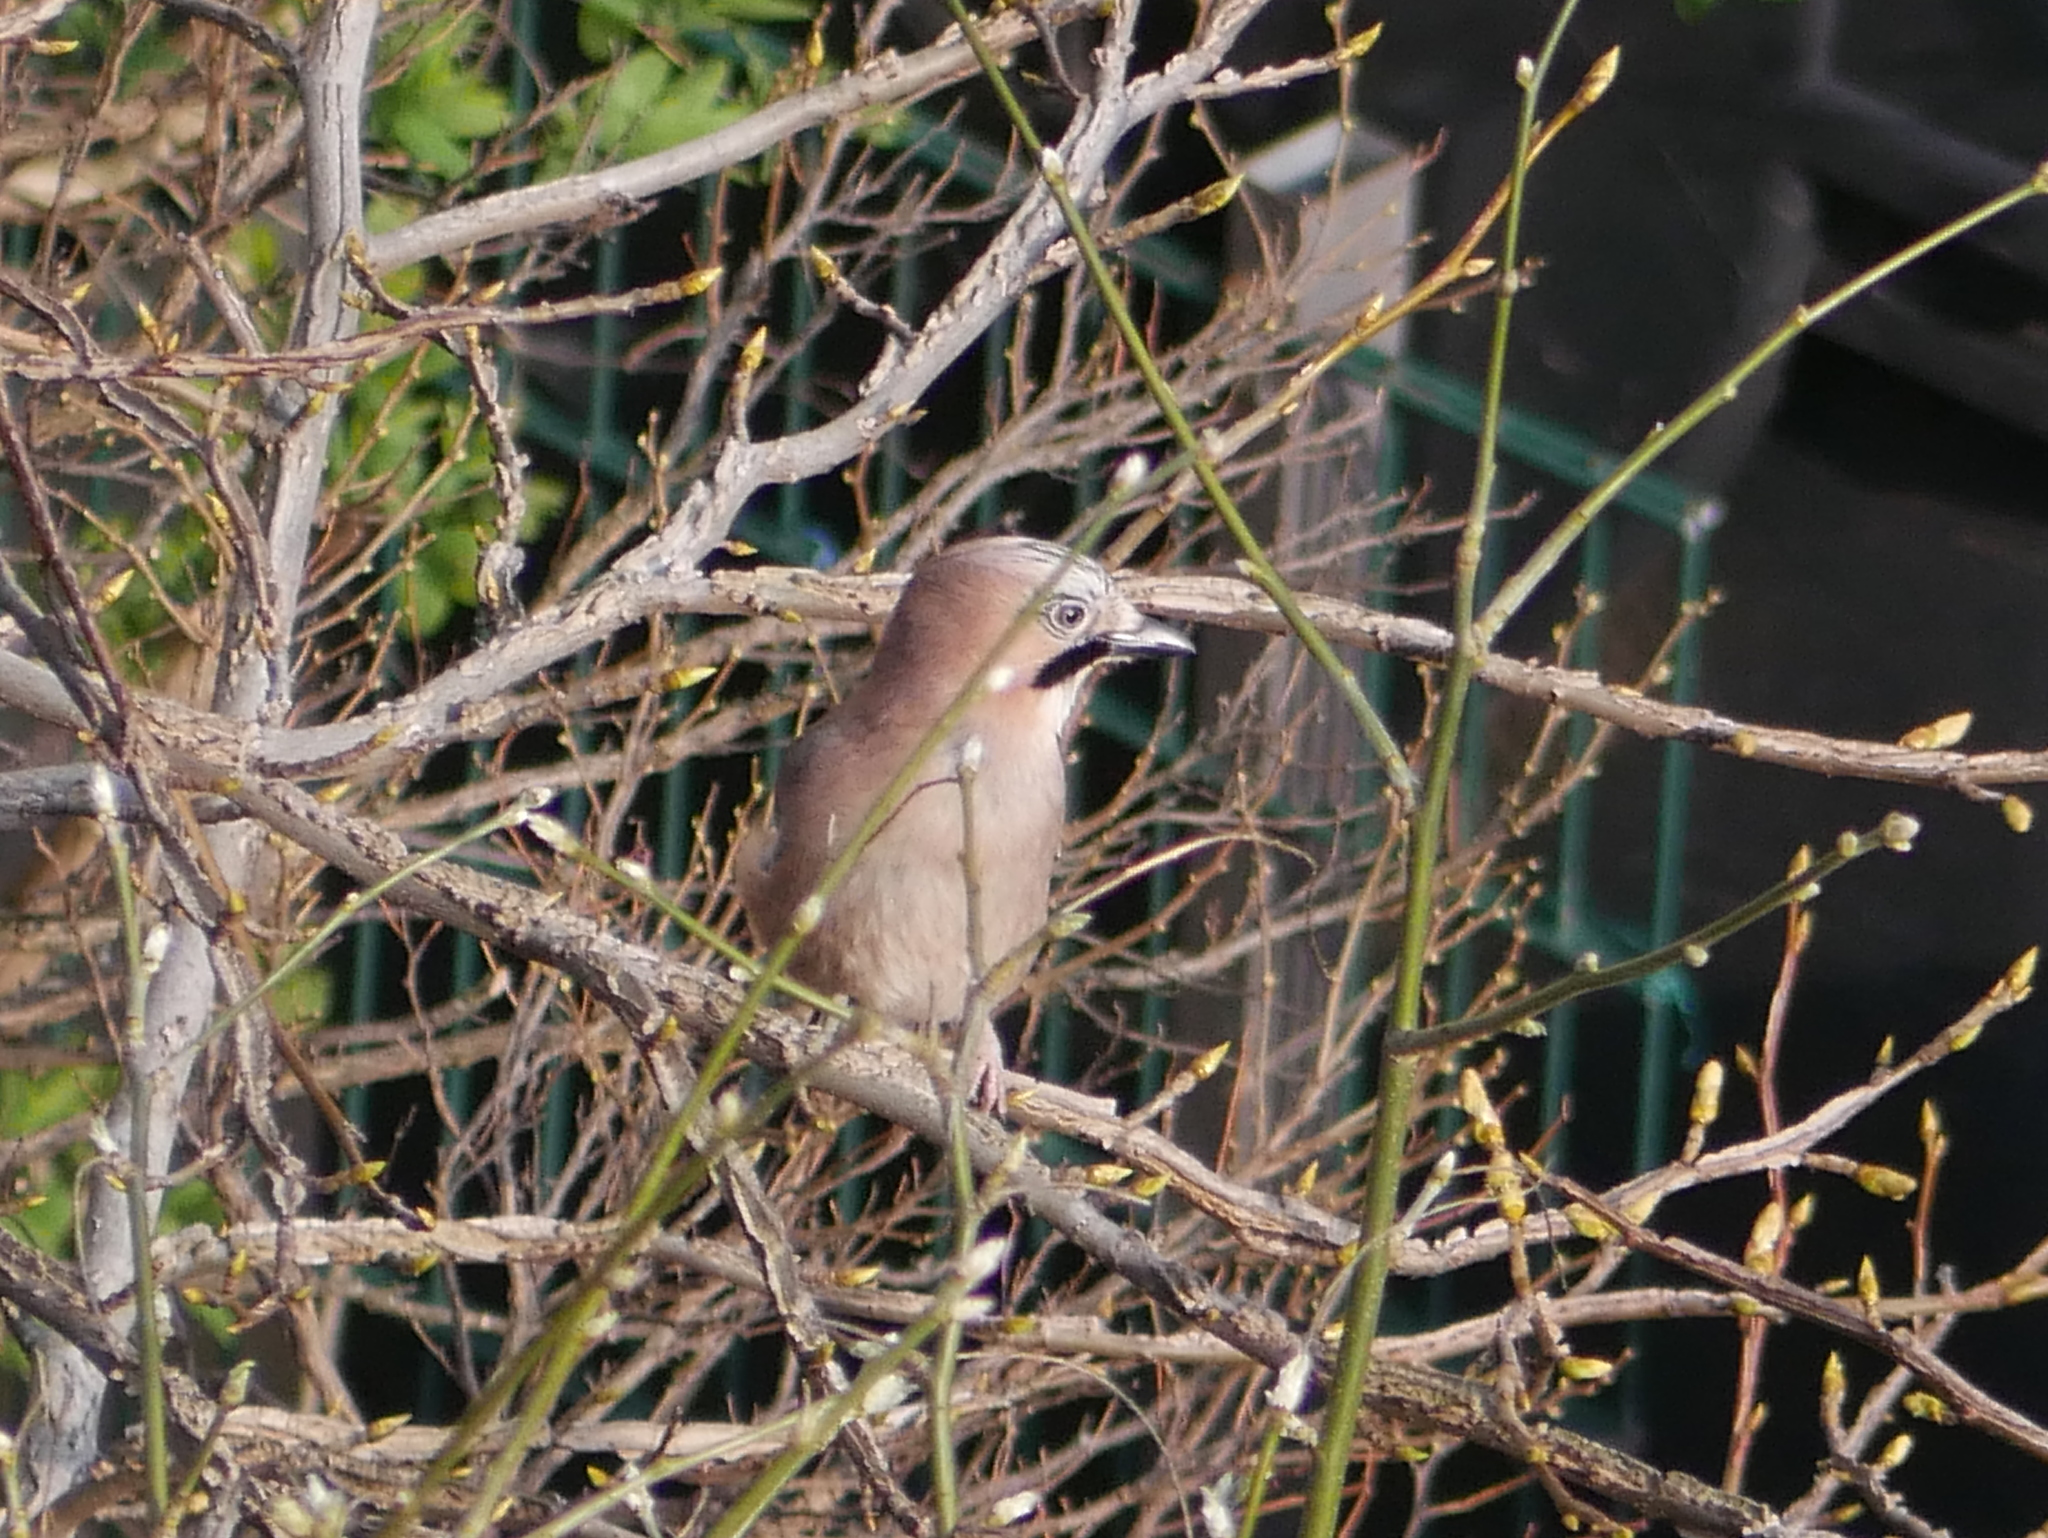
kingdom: Animalia
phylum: Chordata
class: Aves
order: Passeriformes
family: Corvidae
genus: Garrulus
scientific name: Garrulus glandarius
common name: Eurasian jay
